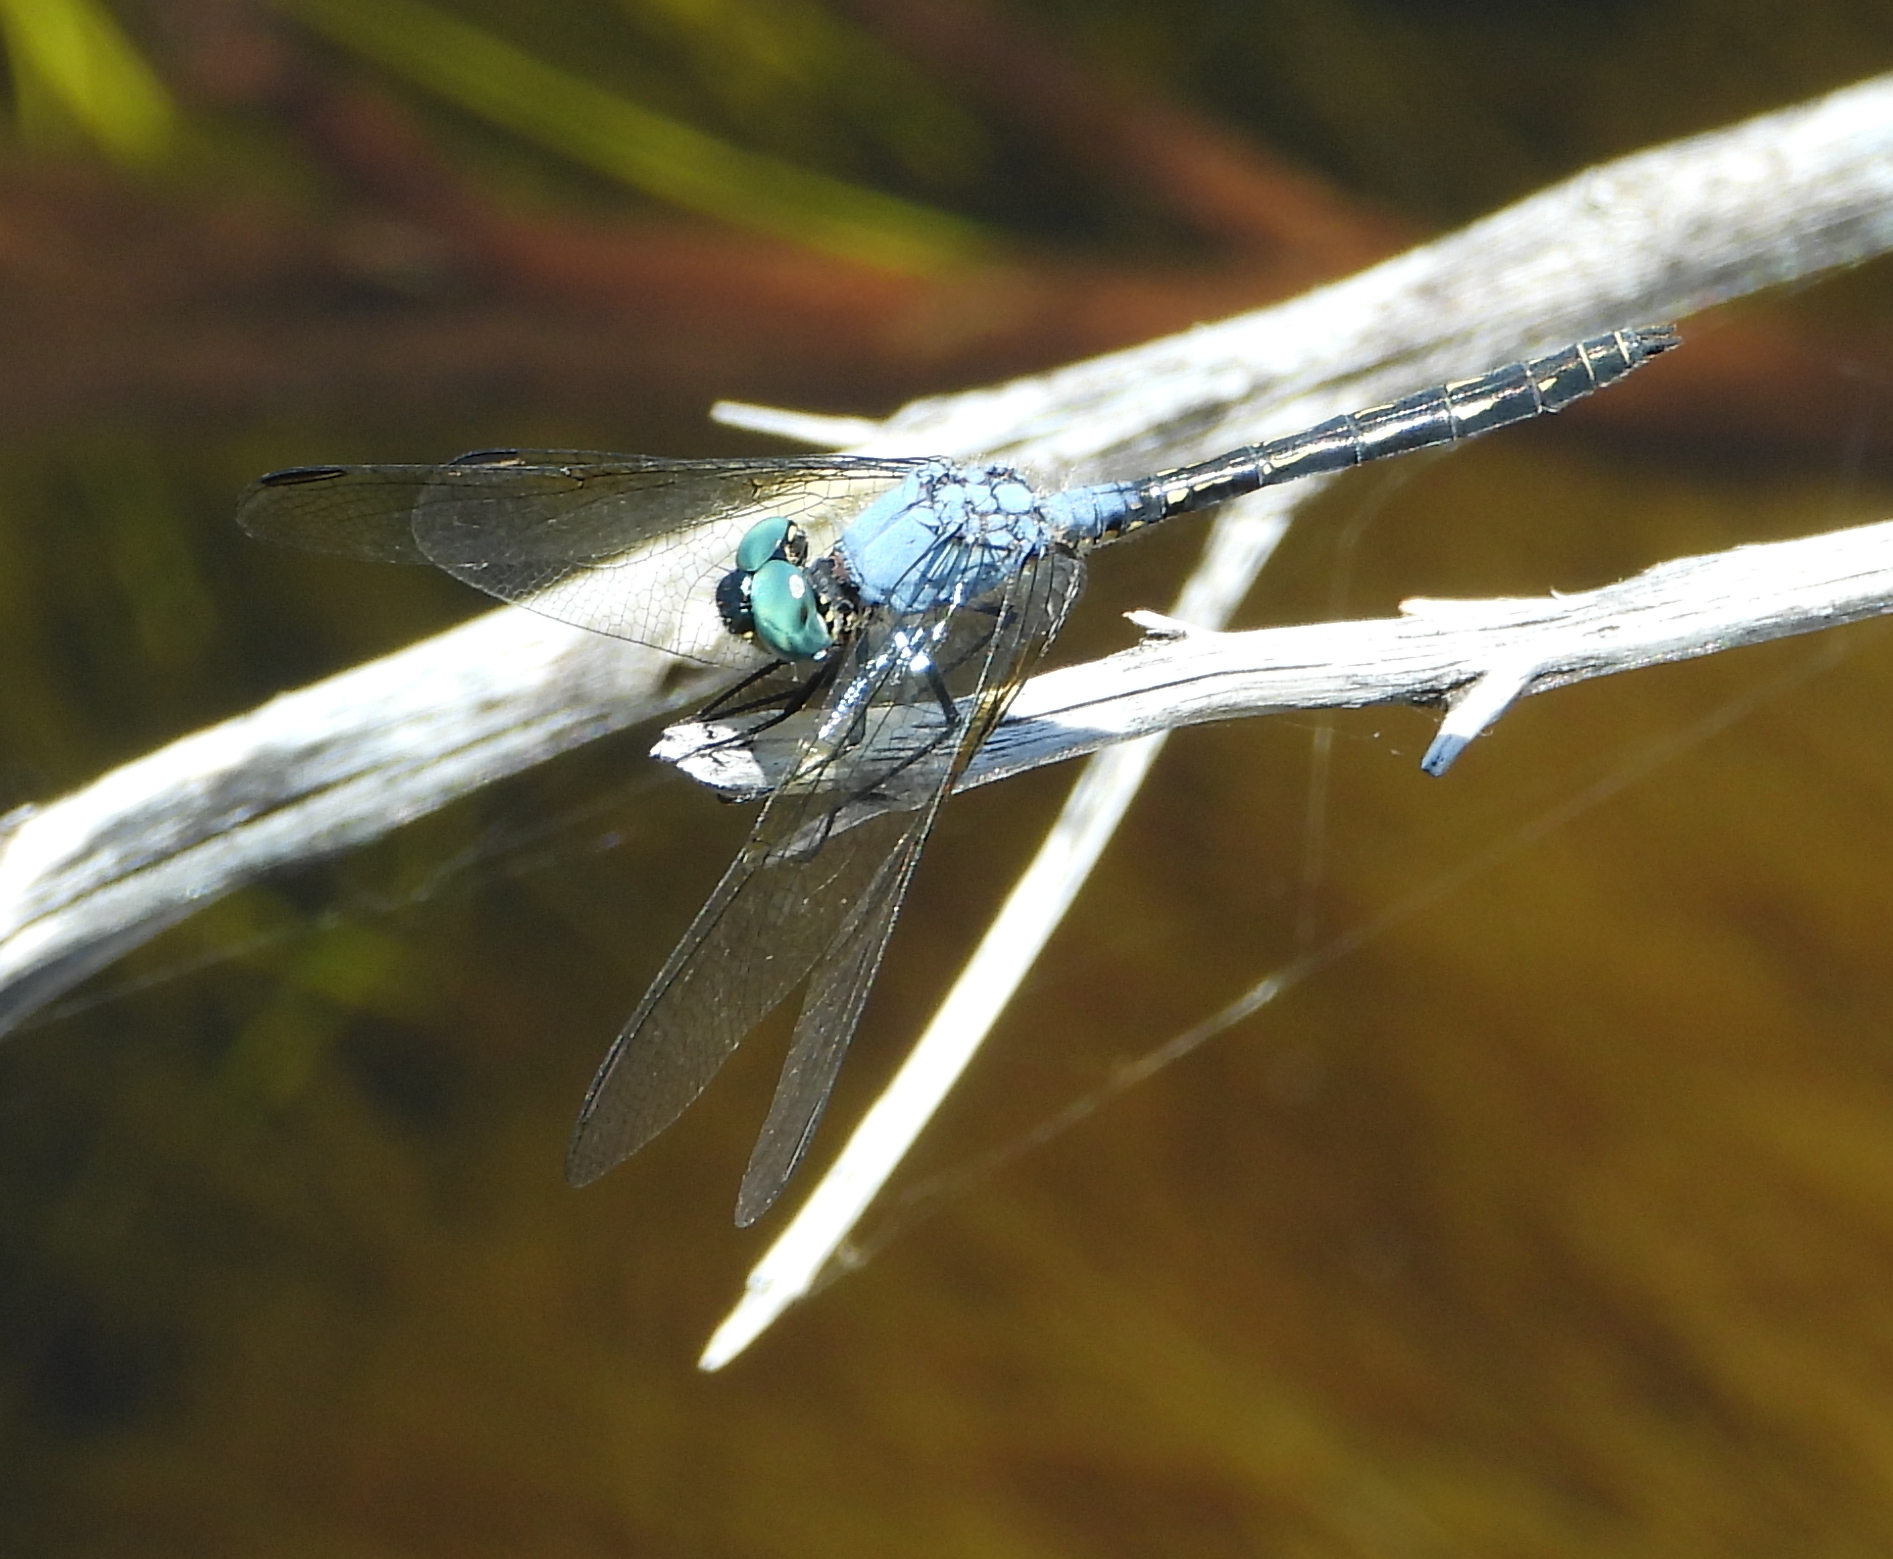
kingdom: Animalia
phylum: Arthropoda
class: Insecta
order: Odonata
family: Libellulidae
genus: Trithemis
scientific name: Trithemis stictica
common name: Jaunty dropwing
